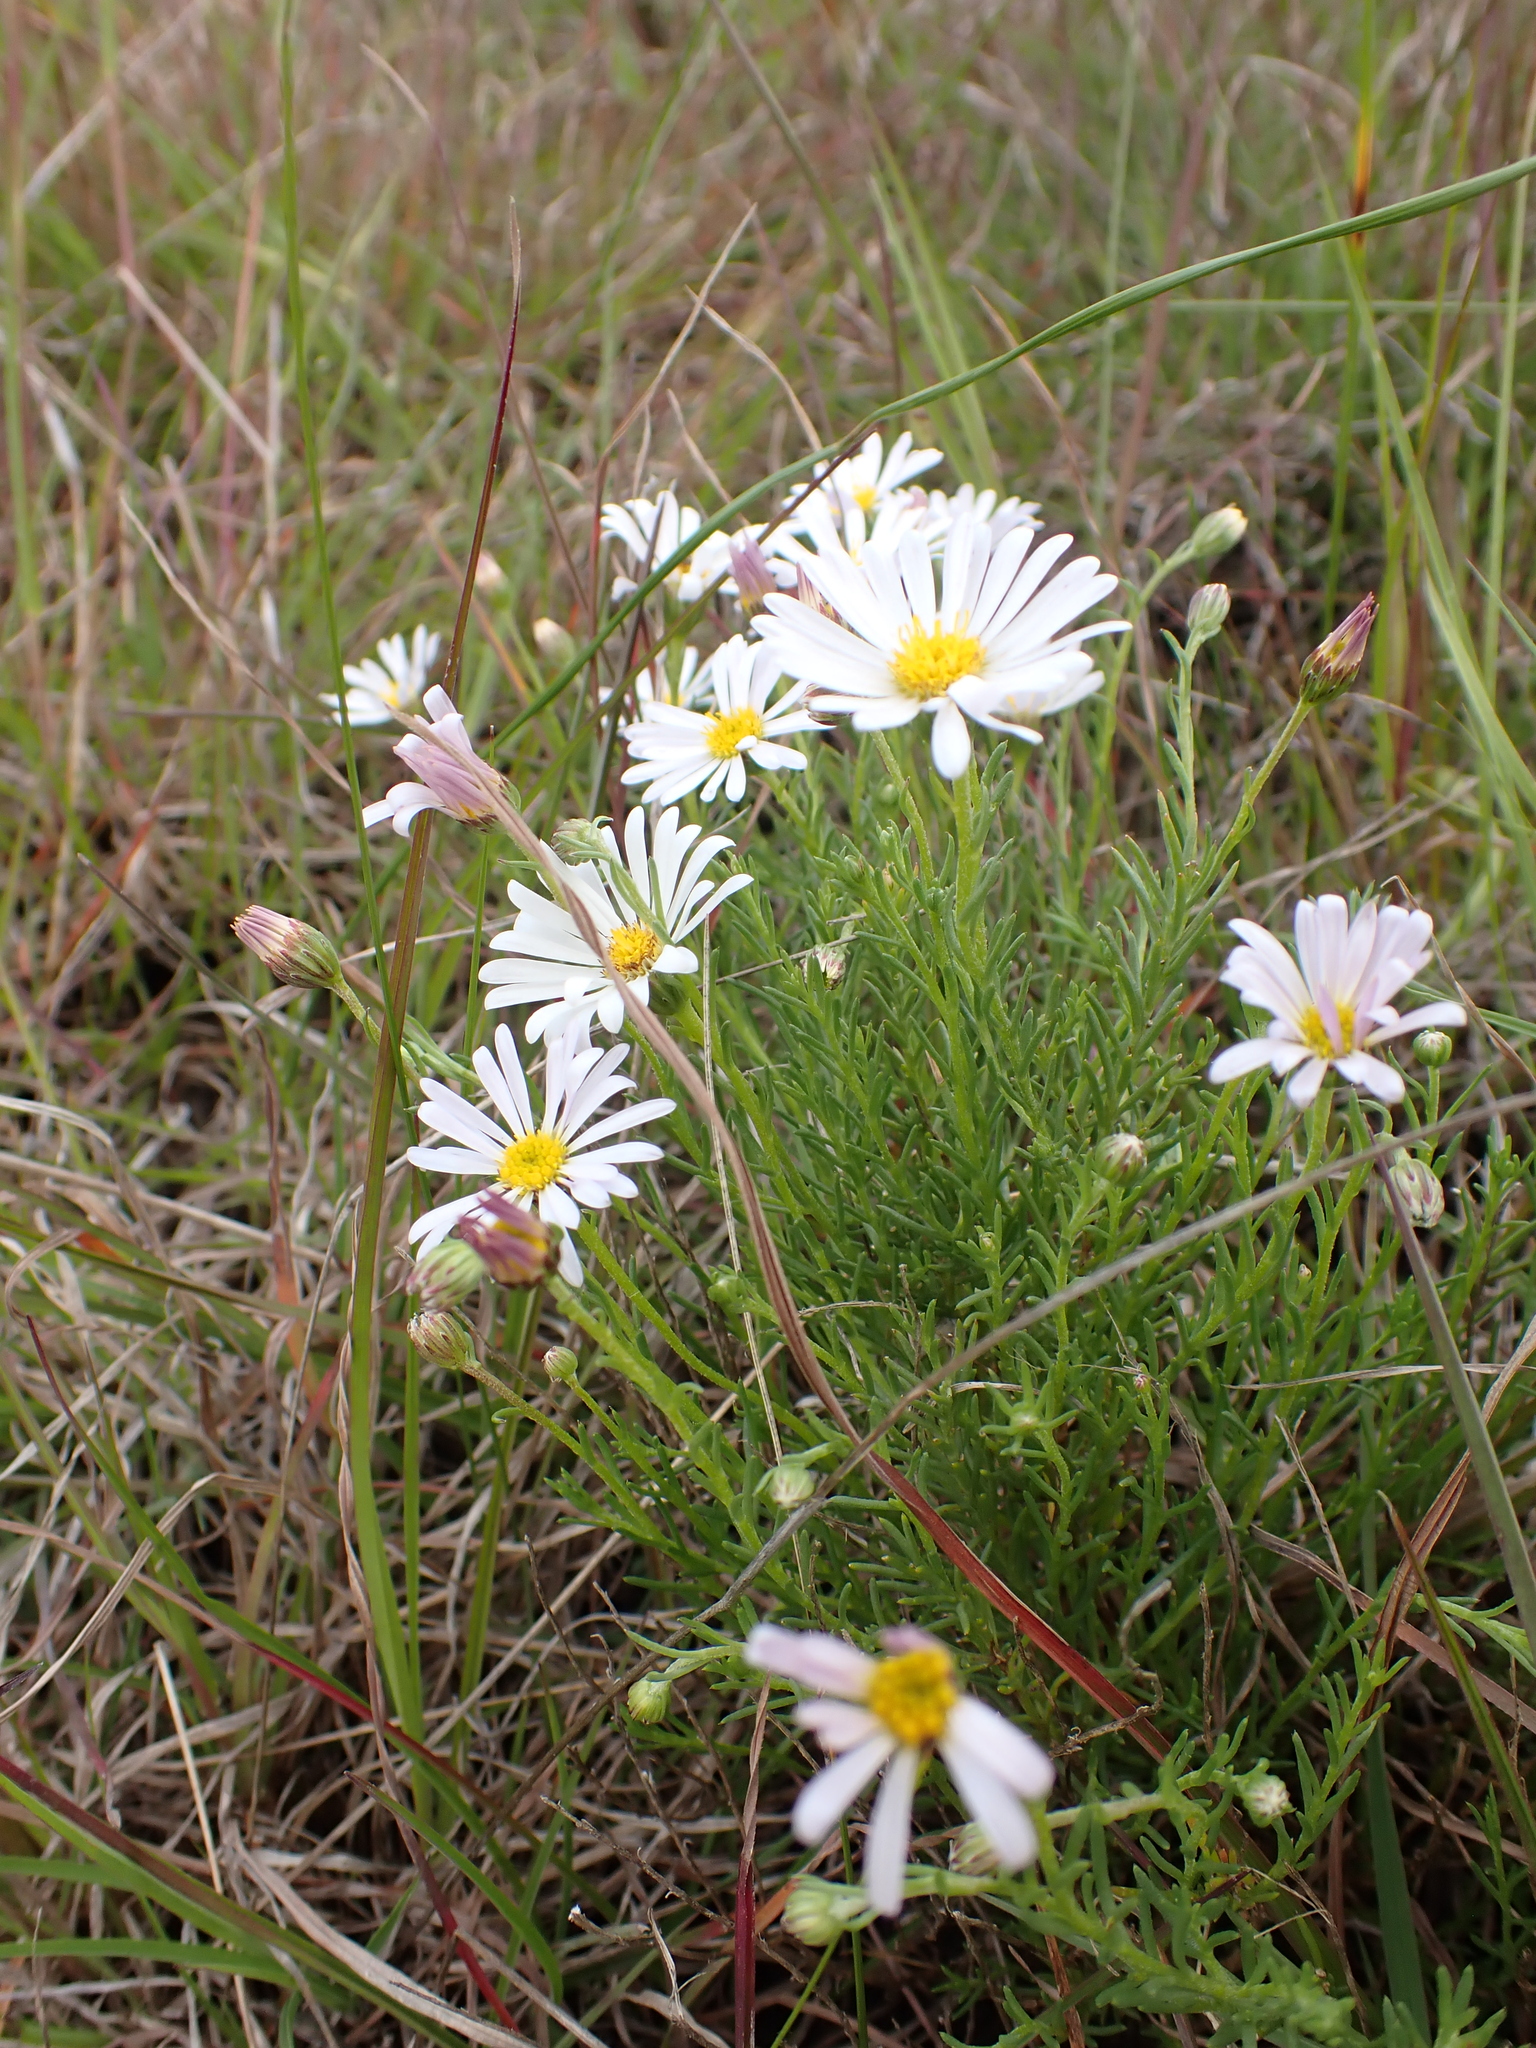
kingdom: Plantae
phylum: Tracheophyta
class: Magnoliopsida
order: Asterales
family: Asteraceae
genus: Minuria
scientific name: Minuria leptophylla
